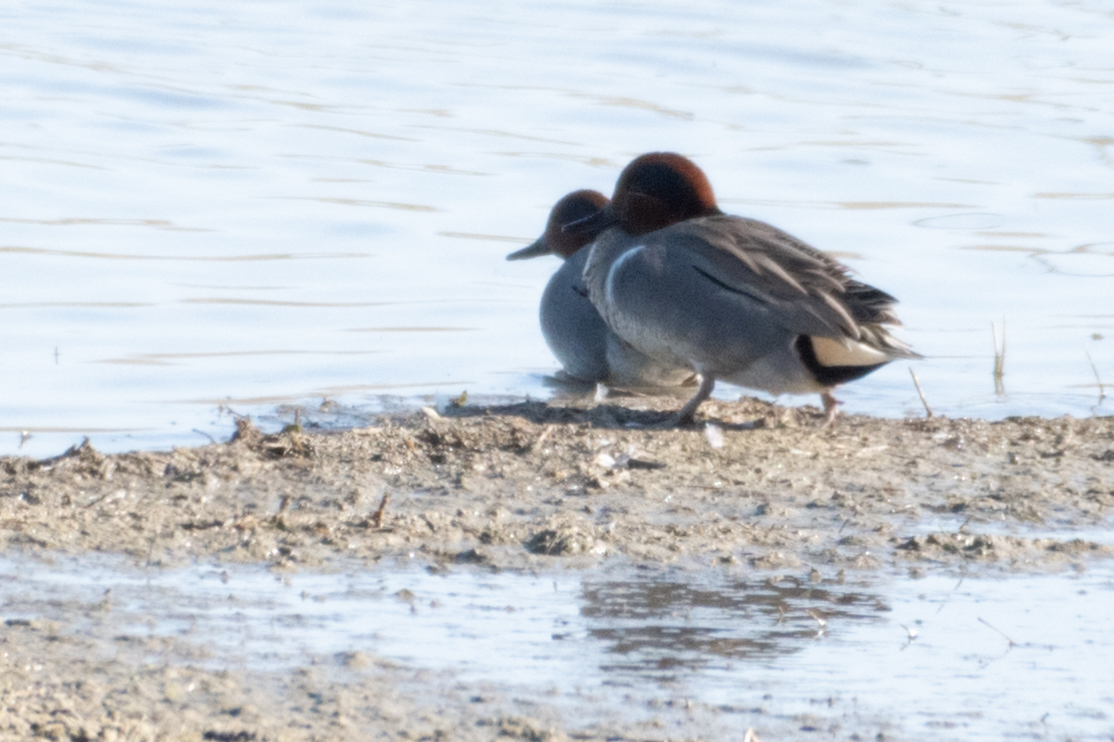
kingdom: Animalia
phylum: Chordata
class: Aves
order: Anseriformes
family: Anatidae
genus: Anas
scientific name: Anas crecca
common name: Eurasian teal
